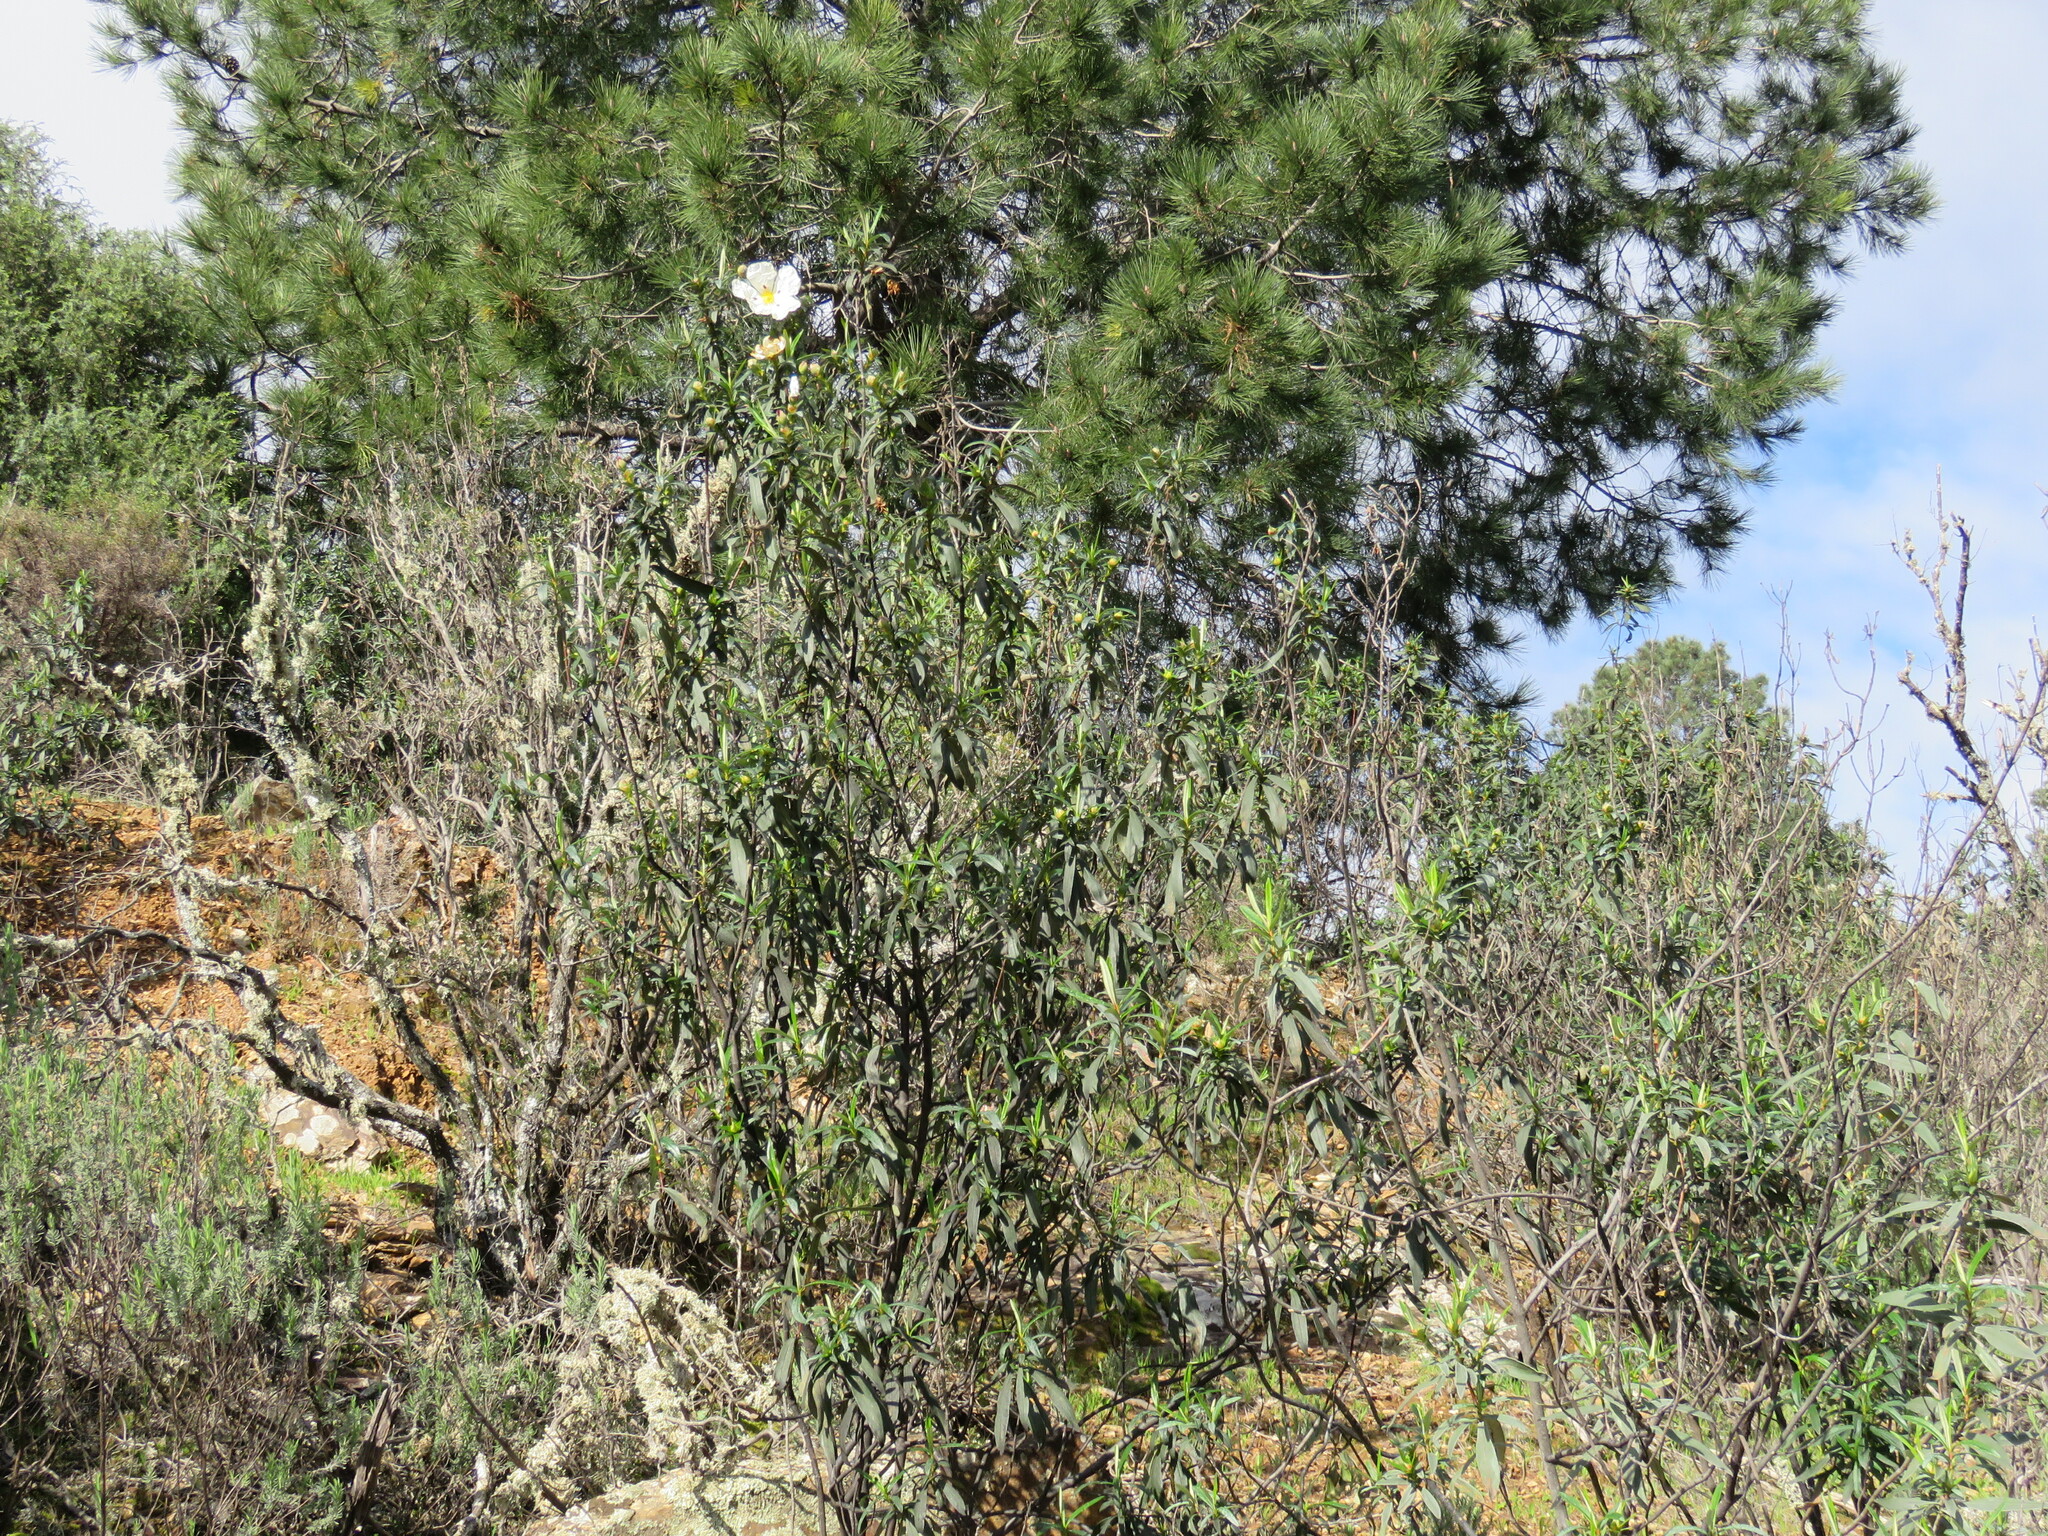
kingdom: Plantae
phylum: Tracheophyta
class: Magnoliopsida
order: Malvales
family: Cistaceae
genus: Cistus
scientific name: Cistus ladanifer
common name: Common gum cistus
